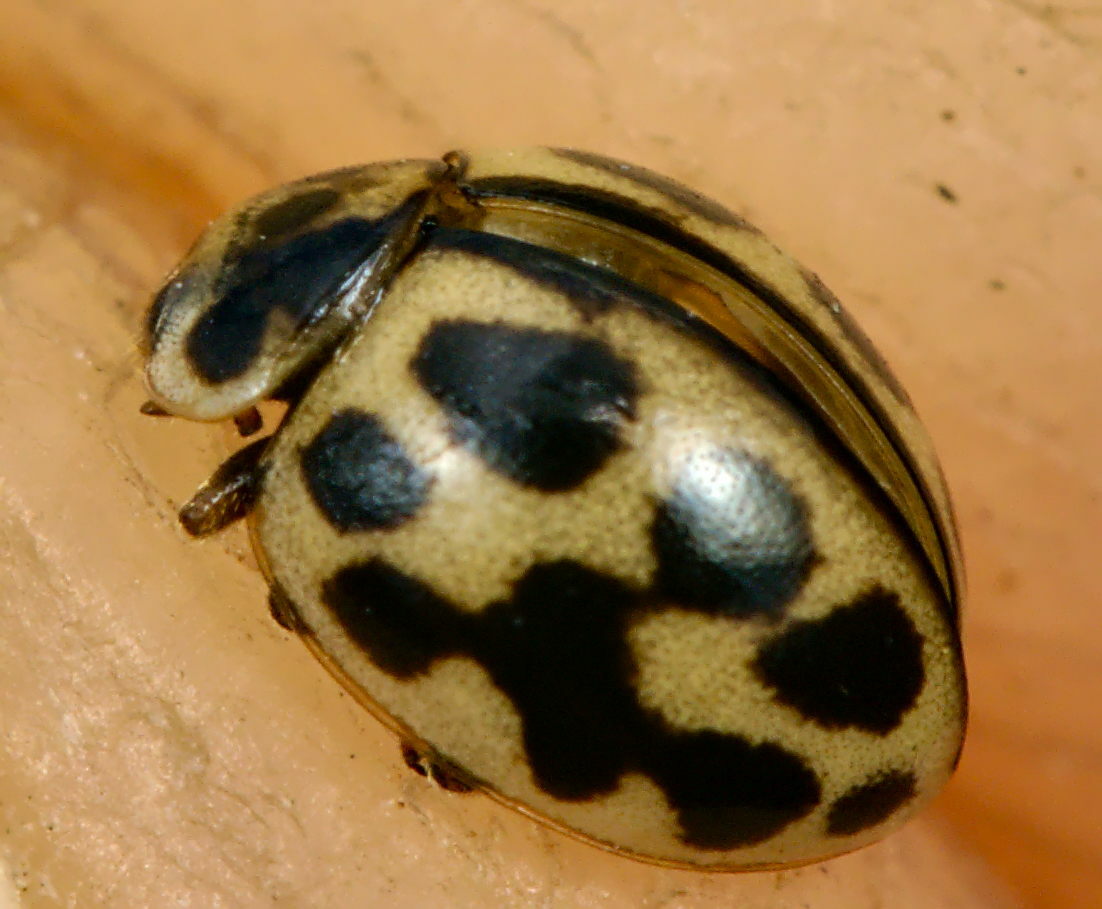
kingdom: Animalia
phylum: Arthropoda
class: Insecta
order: Coleoptera
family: Coccinellidae
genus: Tytthaspis
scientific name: Tytthaspis sedecimpunctata
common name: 16-spot ladybird
